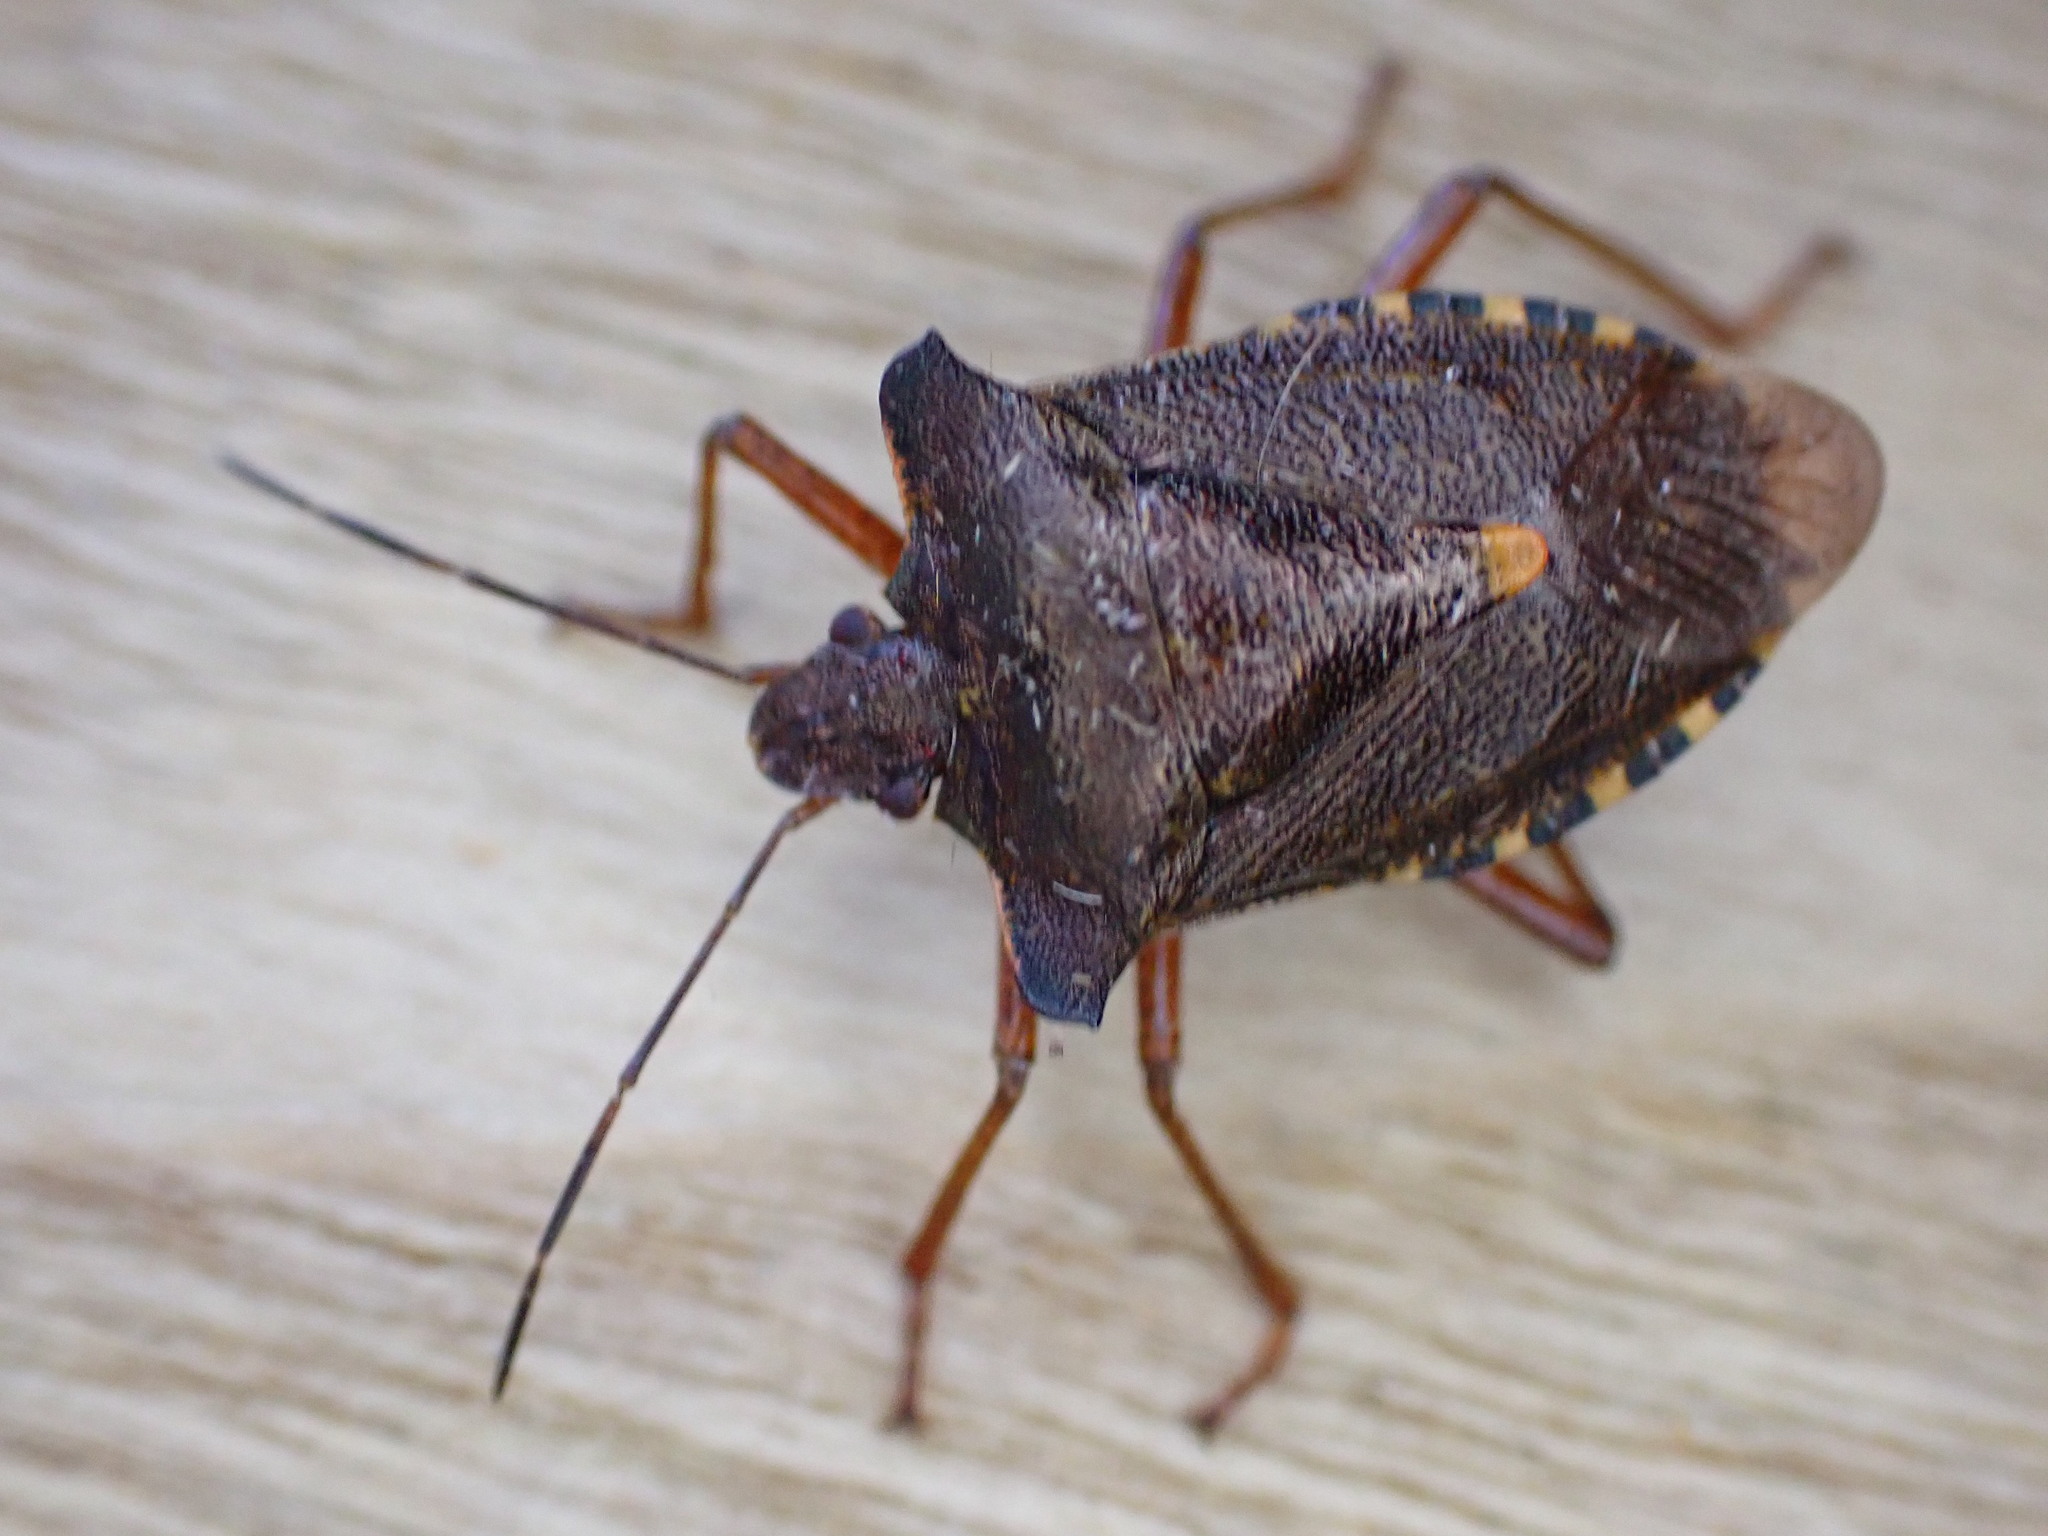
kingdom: Animalia
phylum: Arthropoda
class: Insecta
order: Hemiptera
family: Pentatomidae
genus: Pentatoma
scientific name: Pentatoma rufipes
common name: Forest bug
